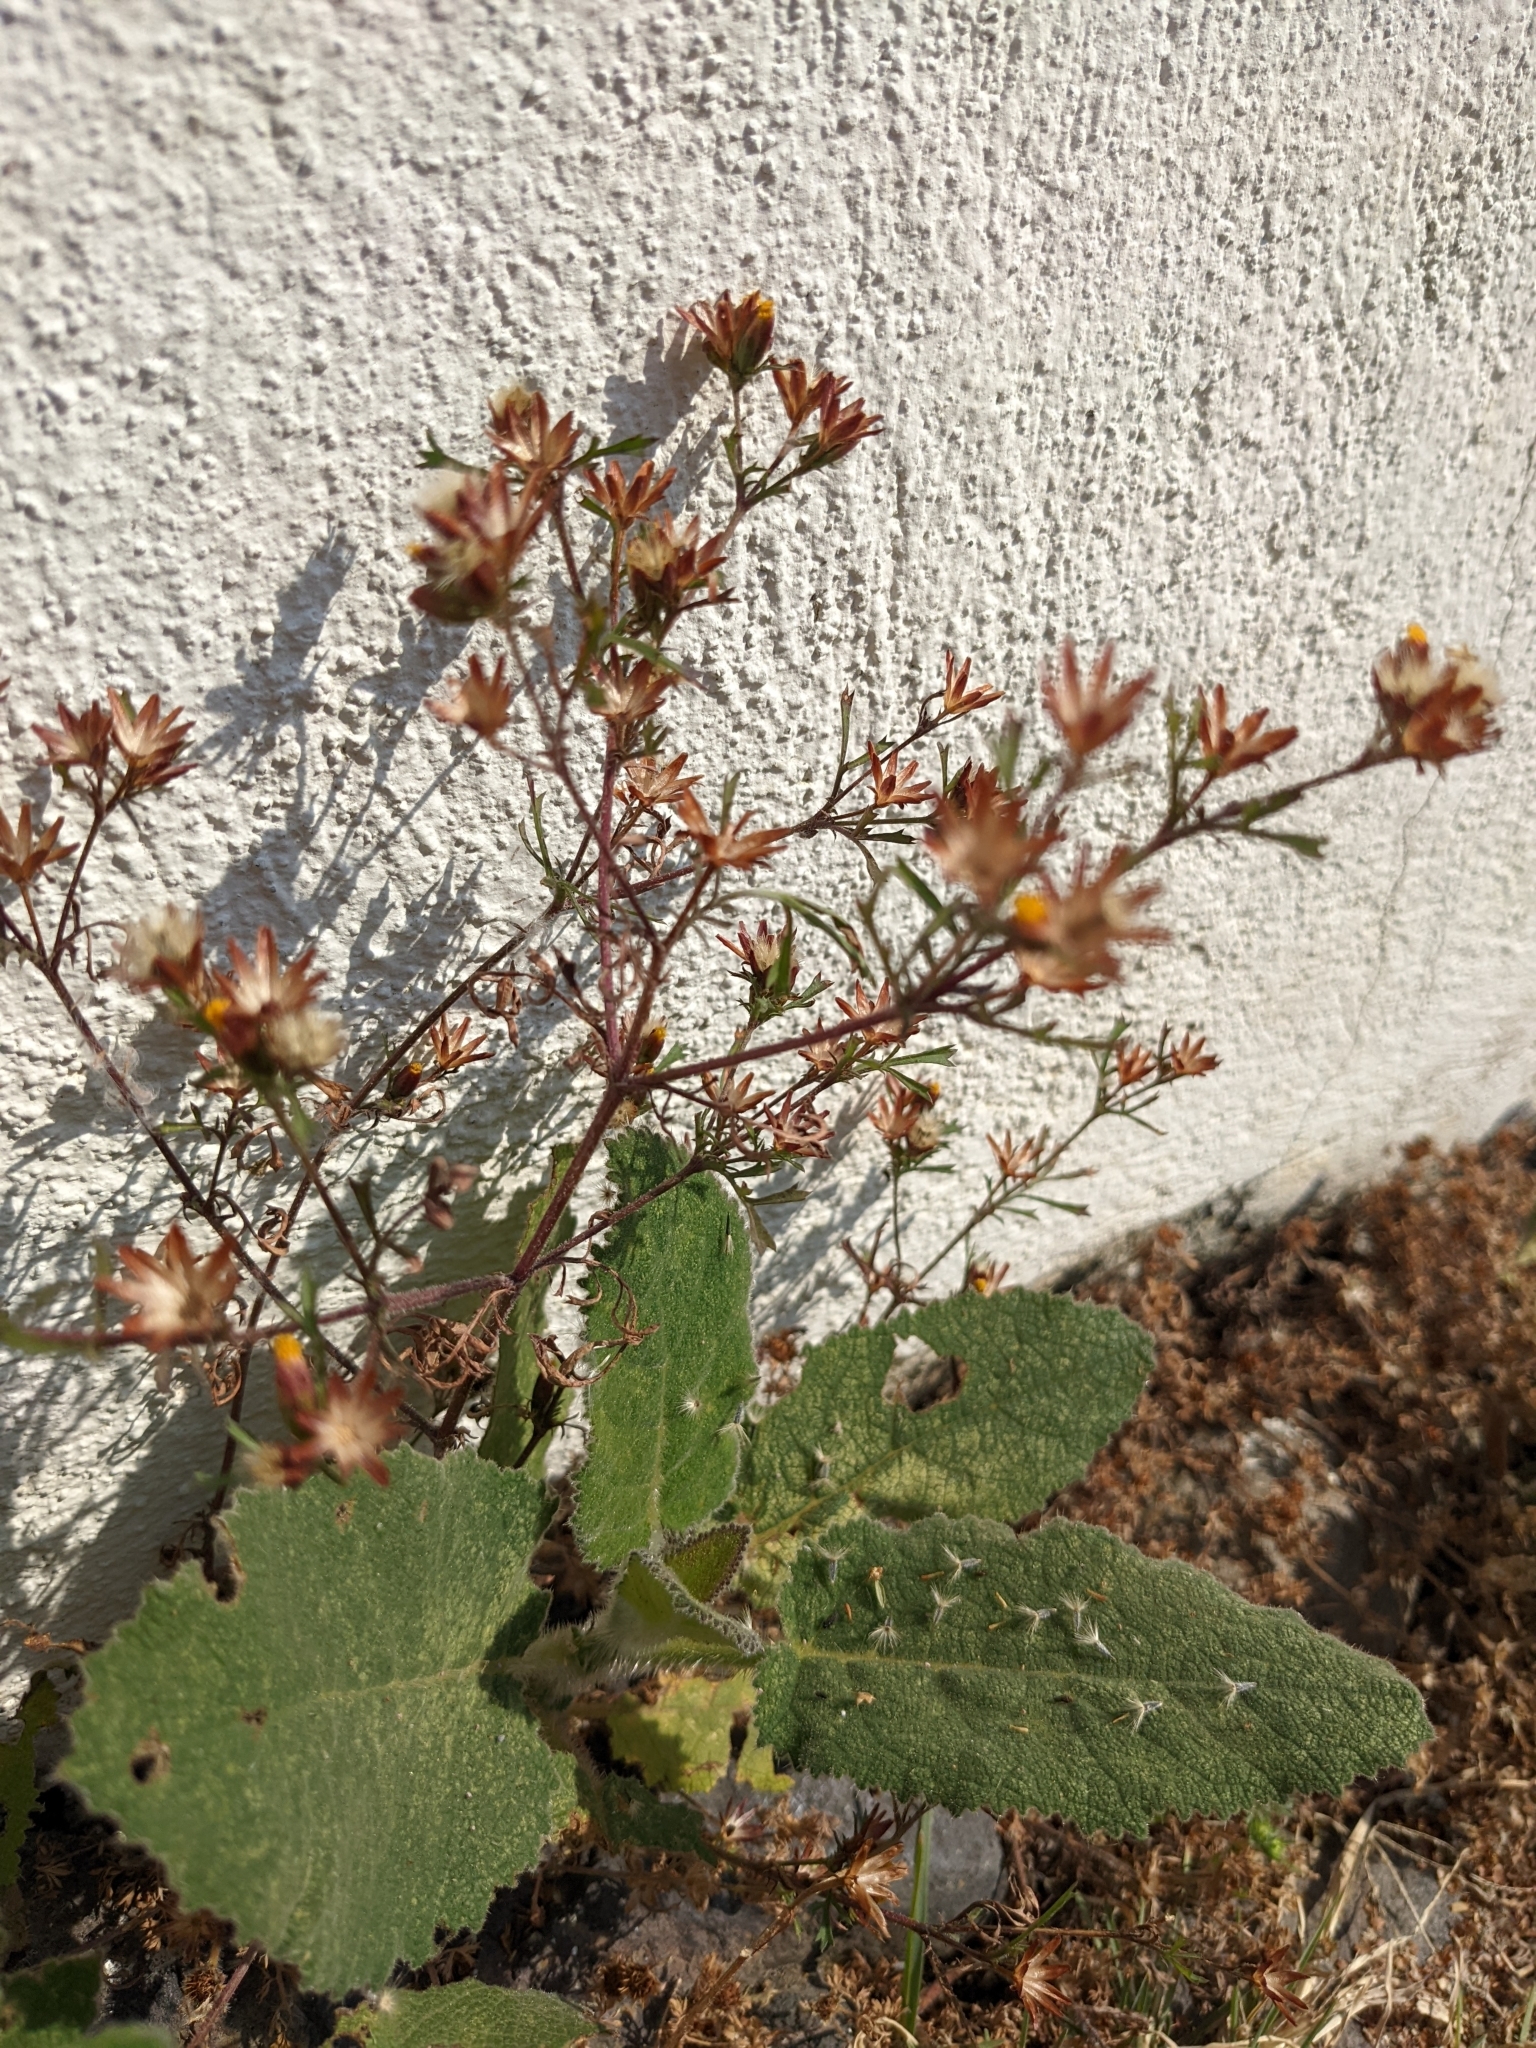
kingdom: Plantae
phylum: Tracheophyta
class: Magnoliopsida
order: Asterales
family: Asteraceae
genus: Dyssodia
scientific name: Dyssodia papposa
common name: Dogweed
